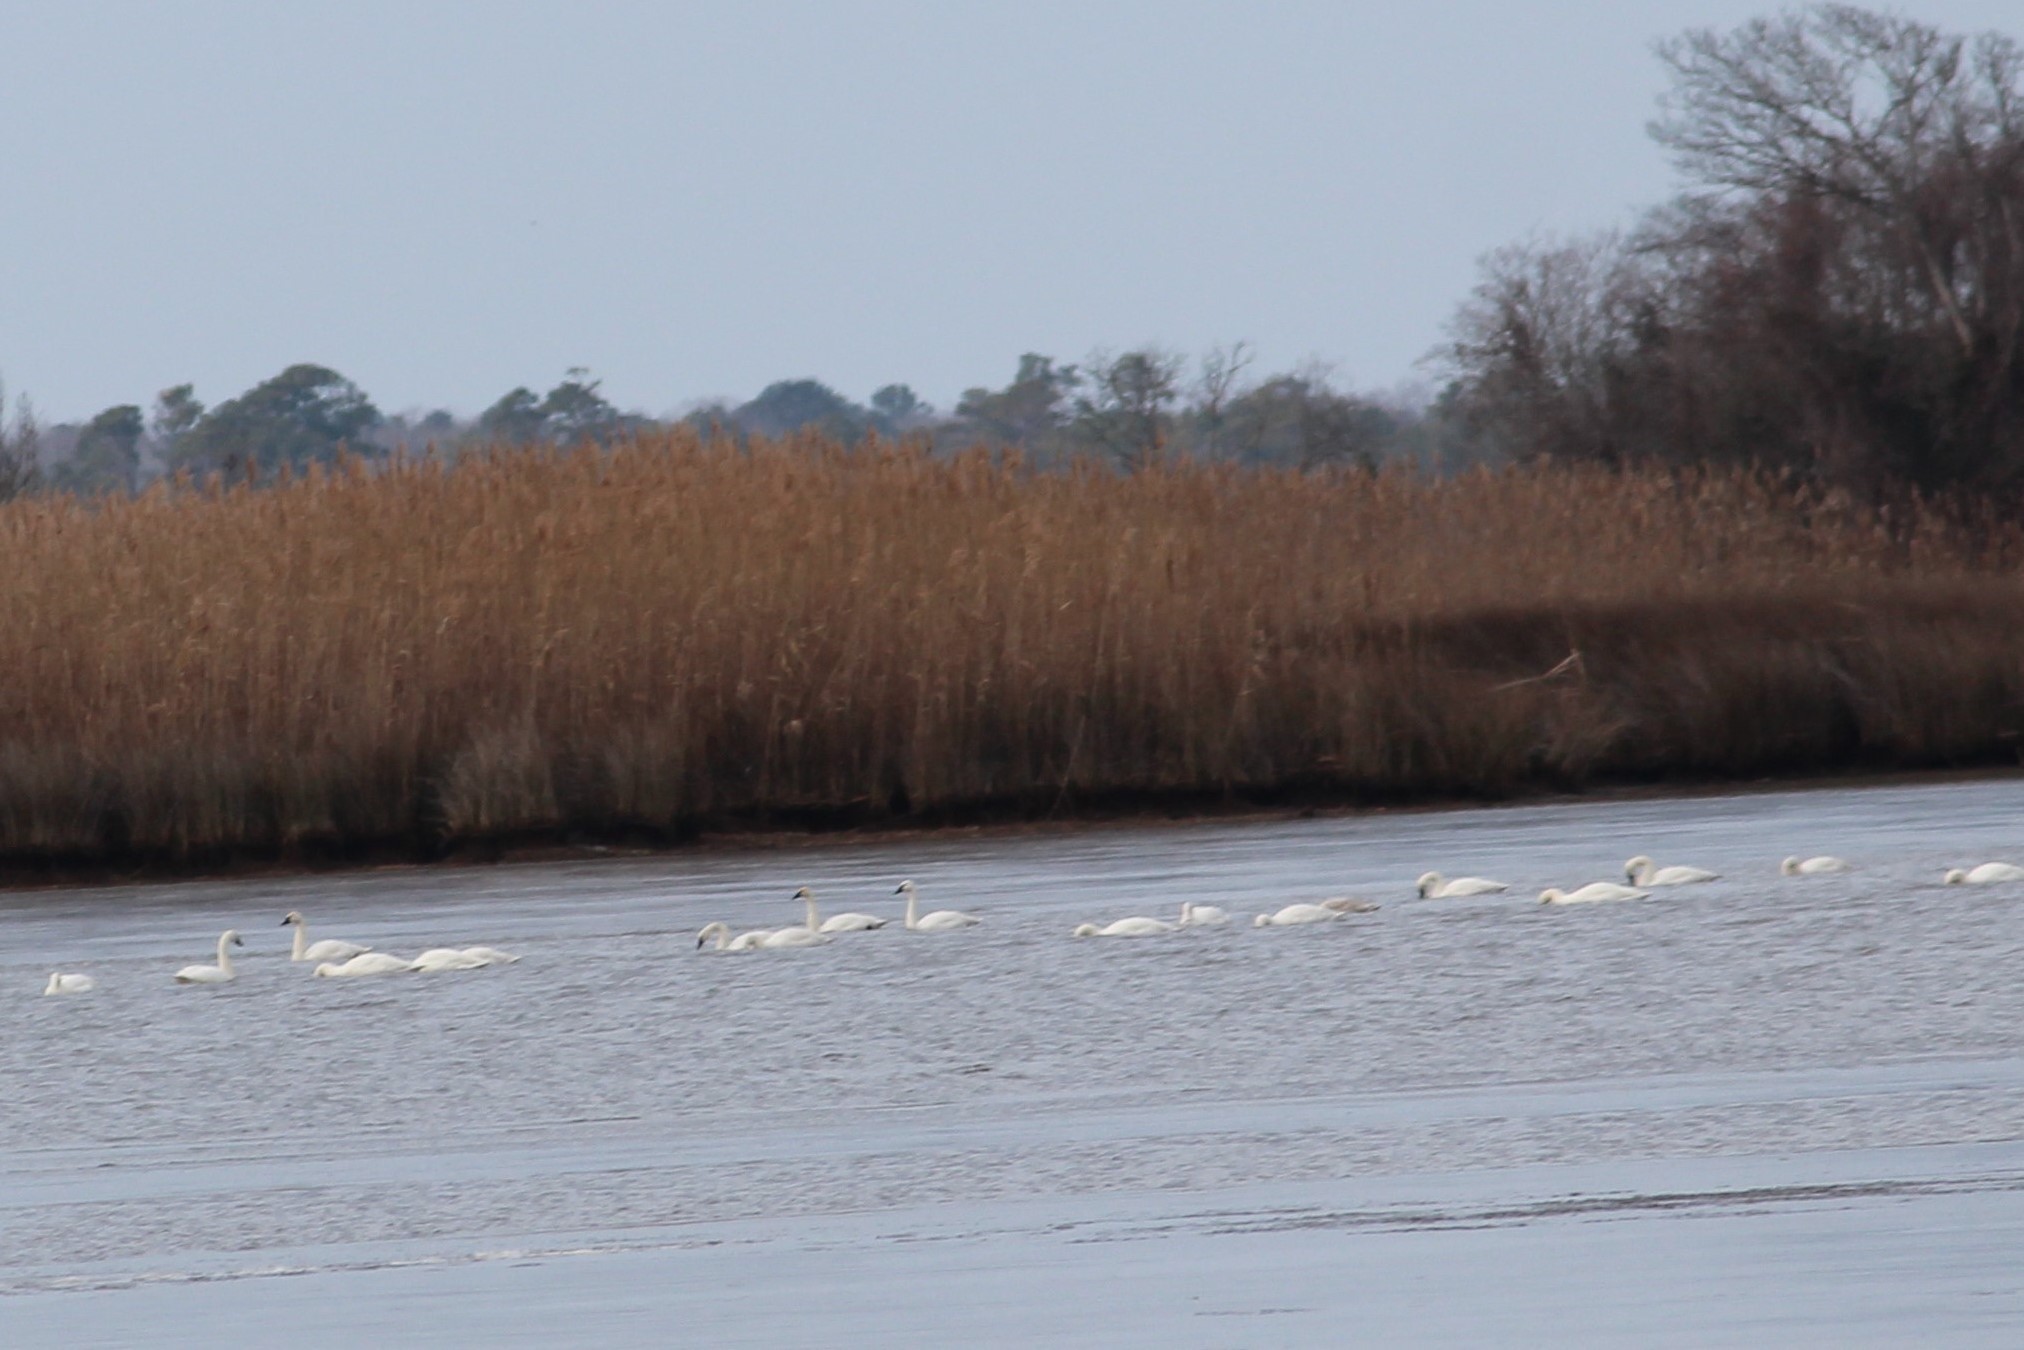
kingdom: Animalia
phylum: Chordata
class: Aves
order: Anseriformes
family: Anatidae
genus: Cygnus
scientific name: Cygnus columbianus
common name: Tundra swan
